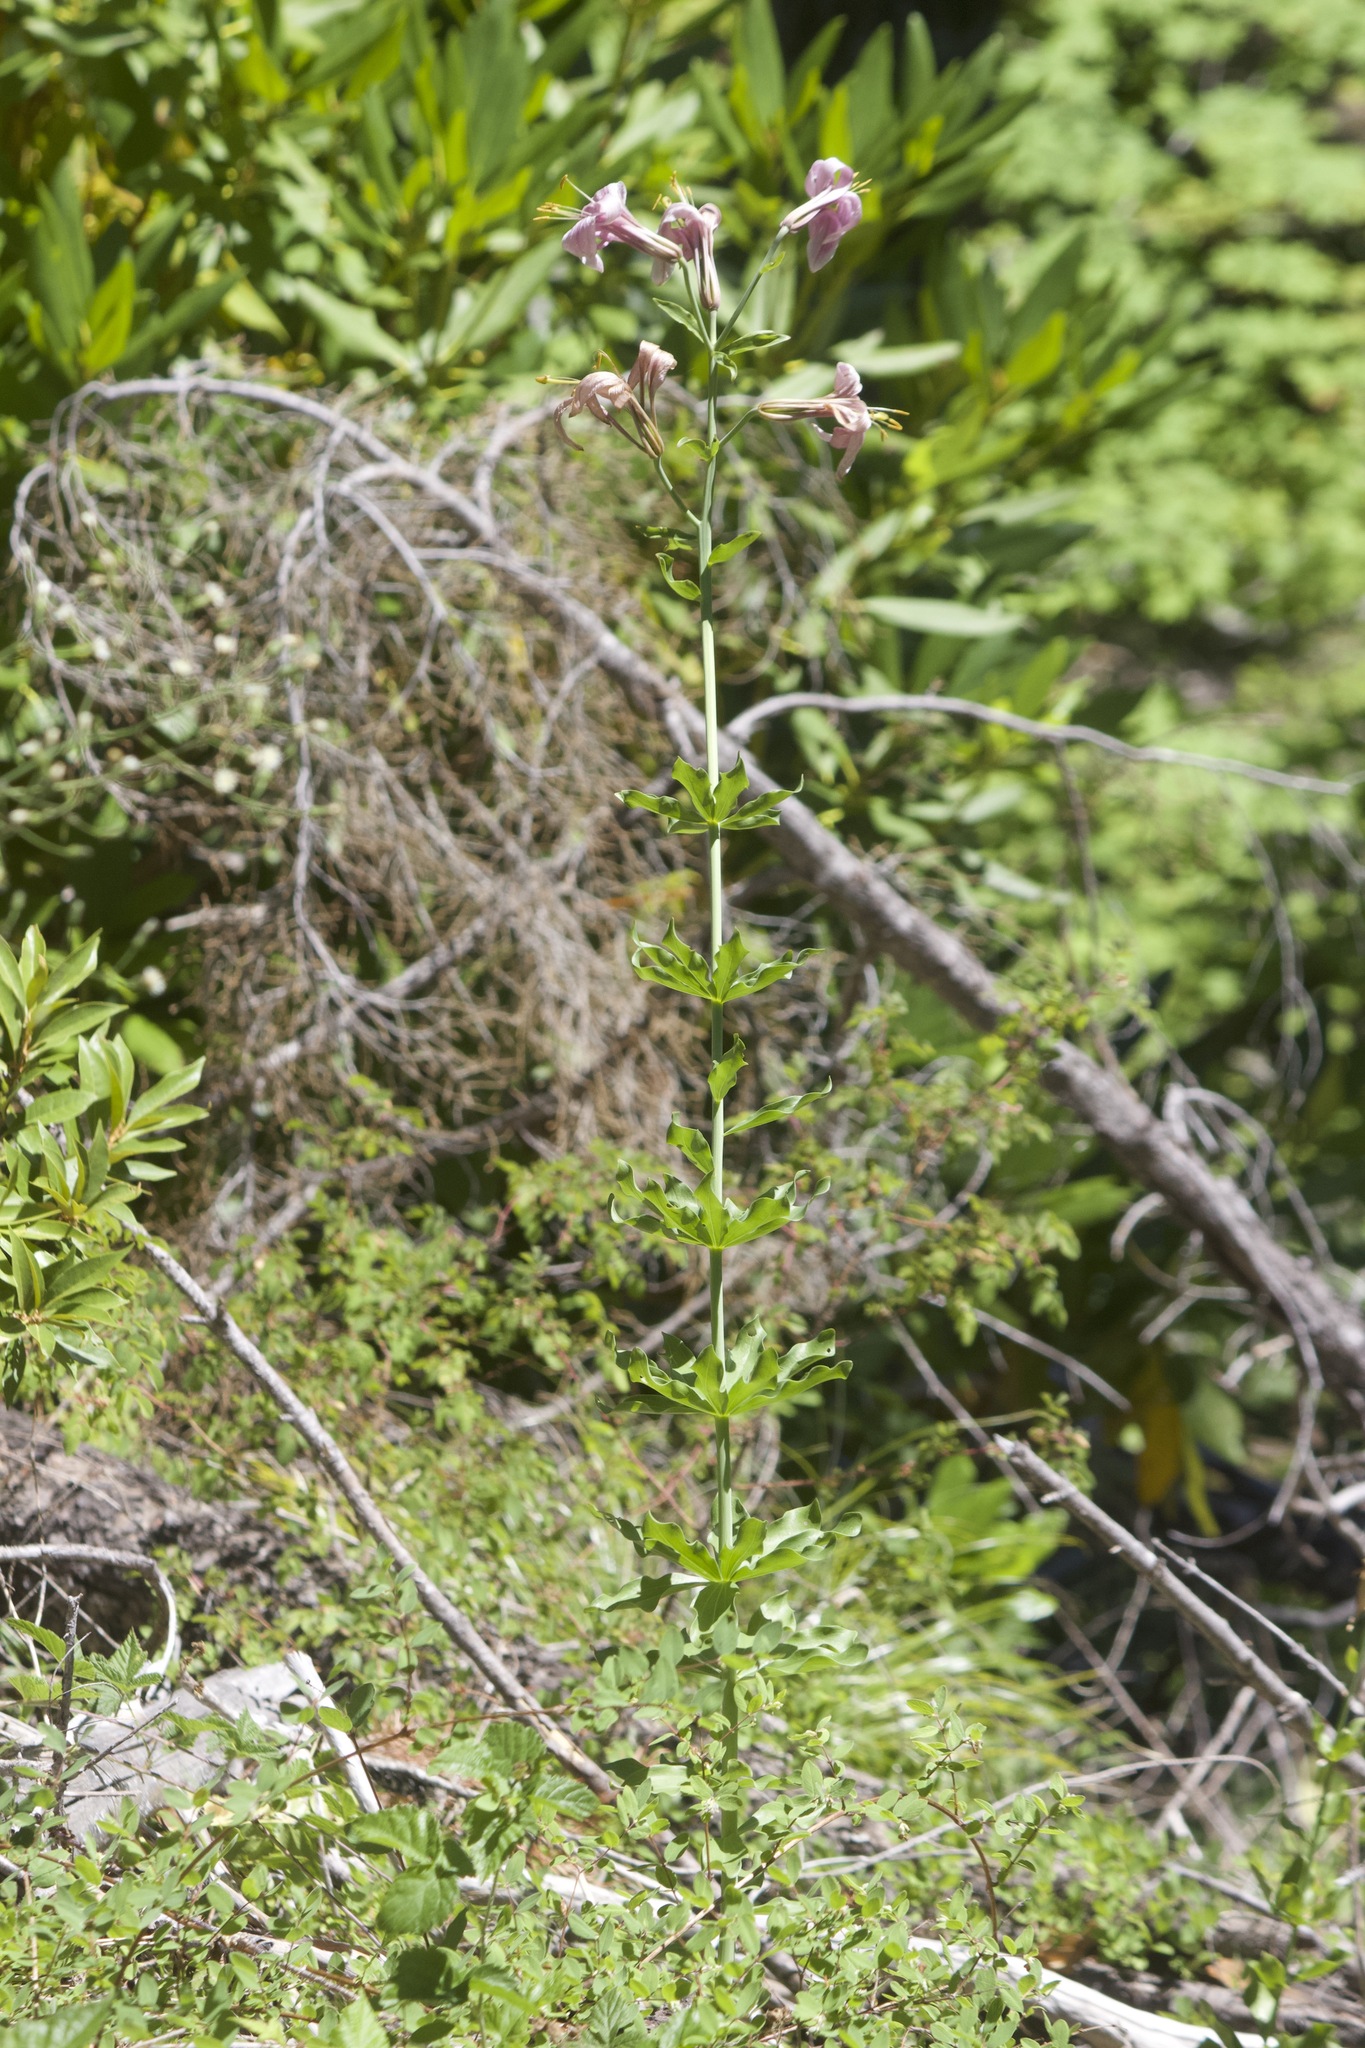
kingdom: Plantae
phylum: Tracheophyta
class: Liliopsida
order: Liliales
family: Liliaceae
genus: Lilium
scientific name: Lilium washingtonianum
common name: Washington lily
